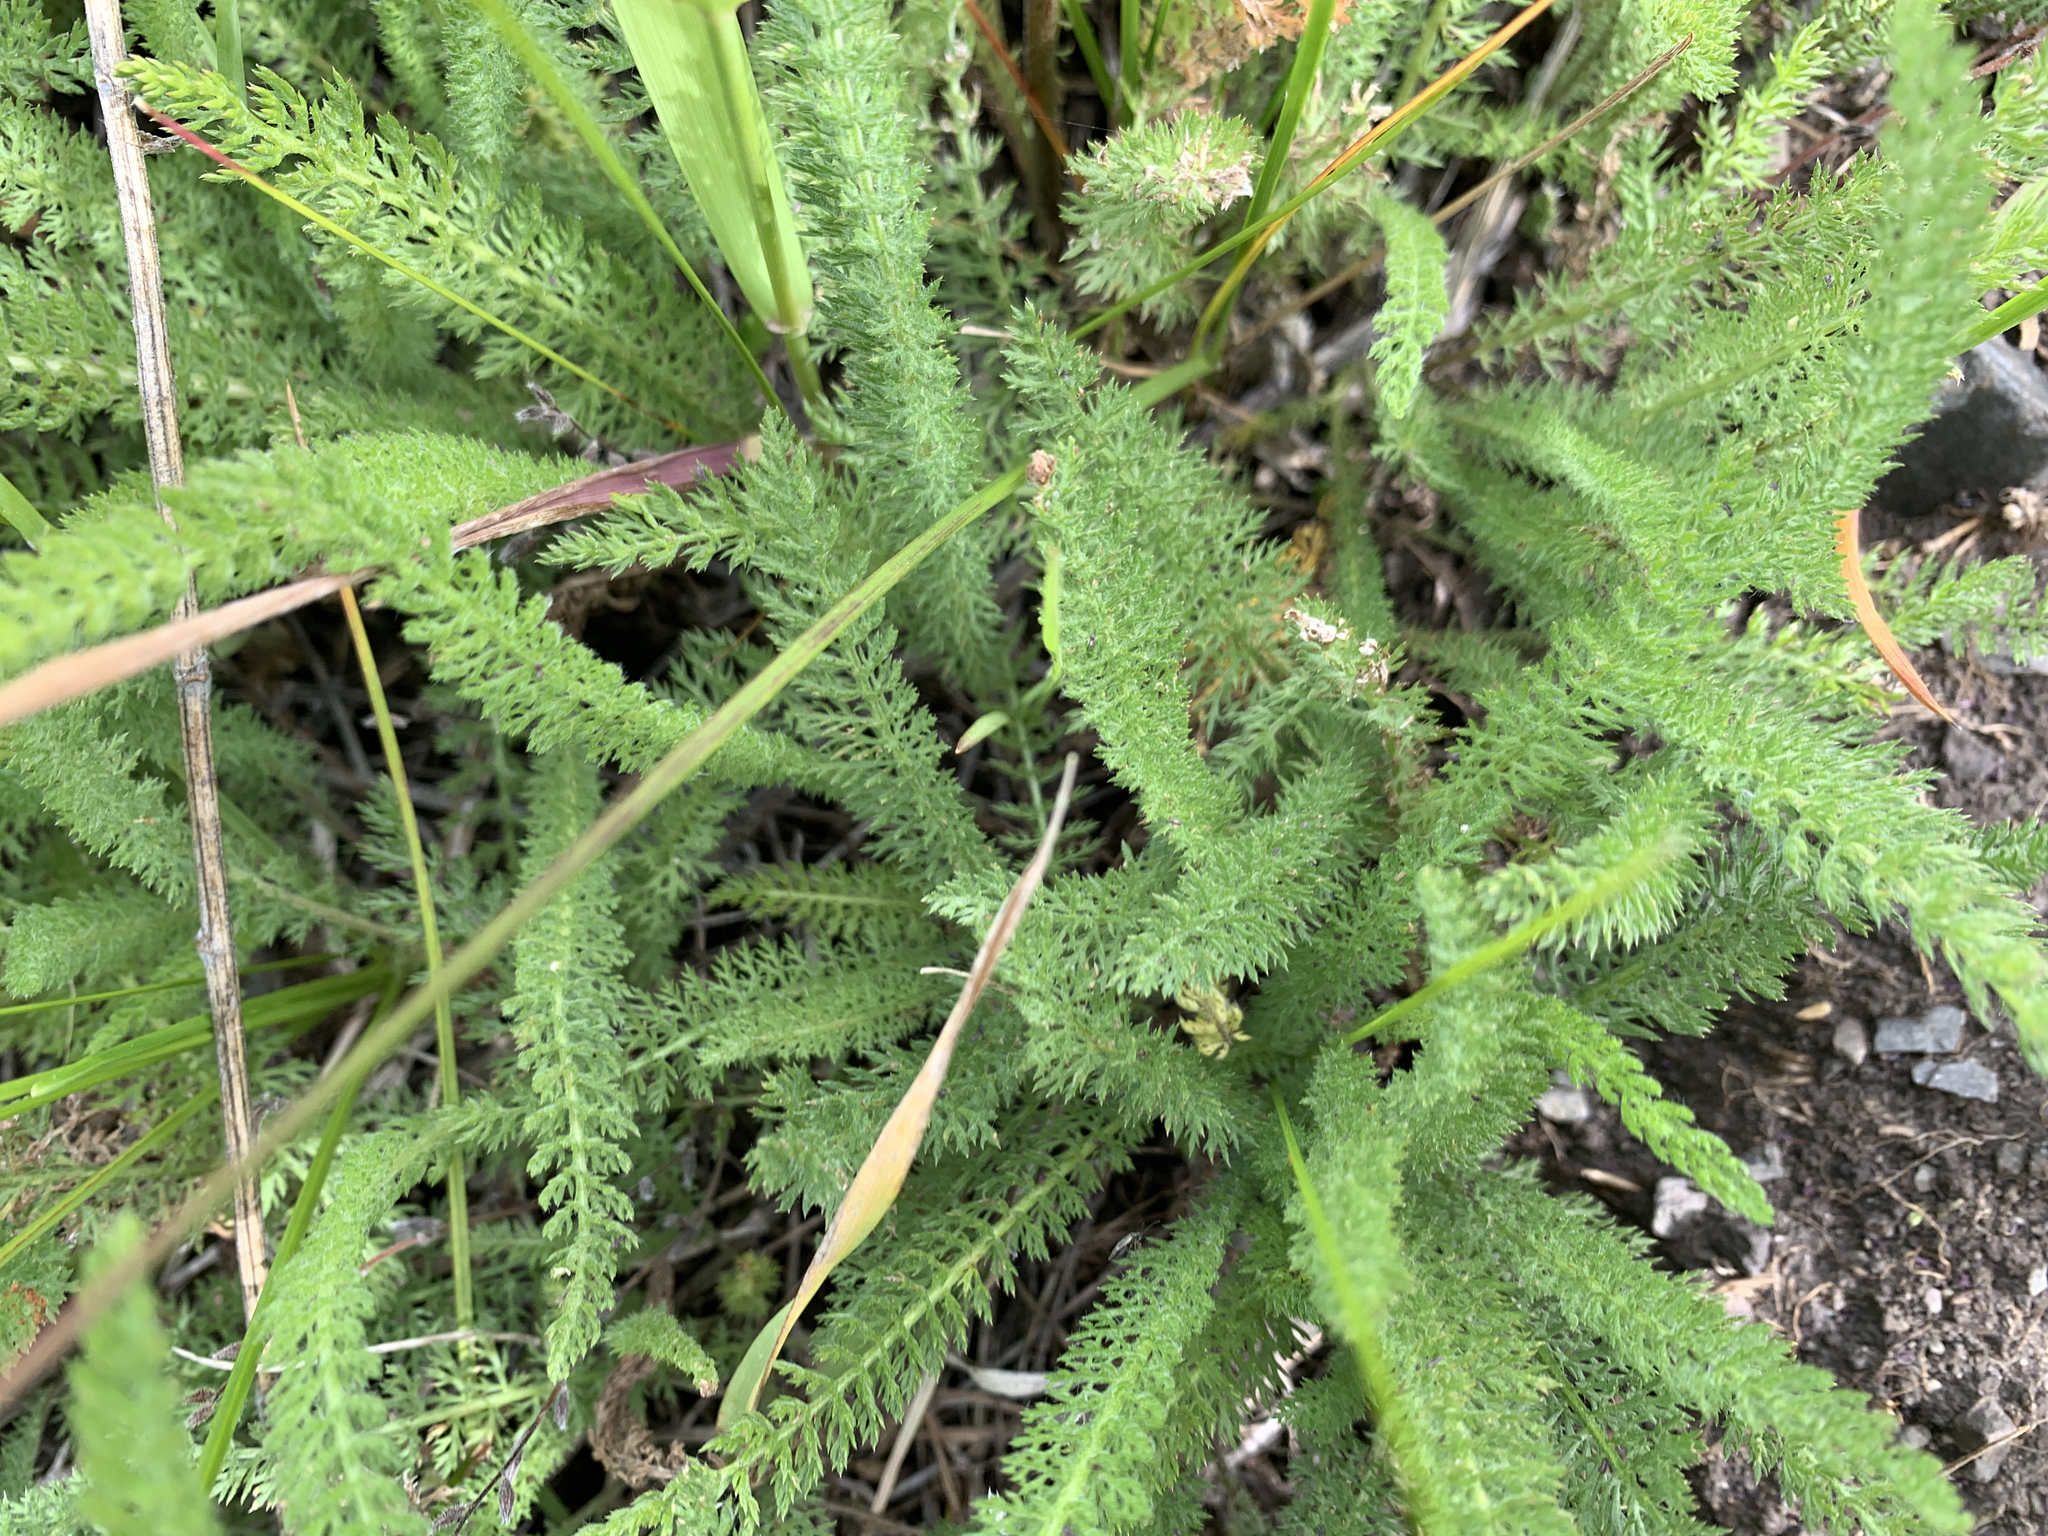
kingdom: Plantae
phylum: Tracheophyta
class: Magnoliopsida
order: Asterales
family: Asteraceae
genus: Achillea
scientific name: Achillea millefolium
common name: Yarrow
